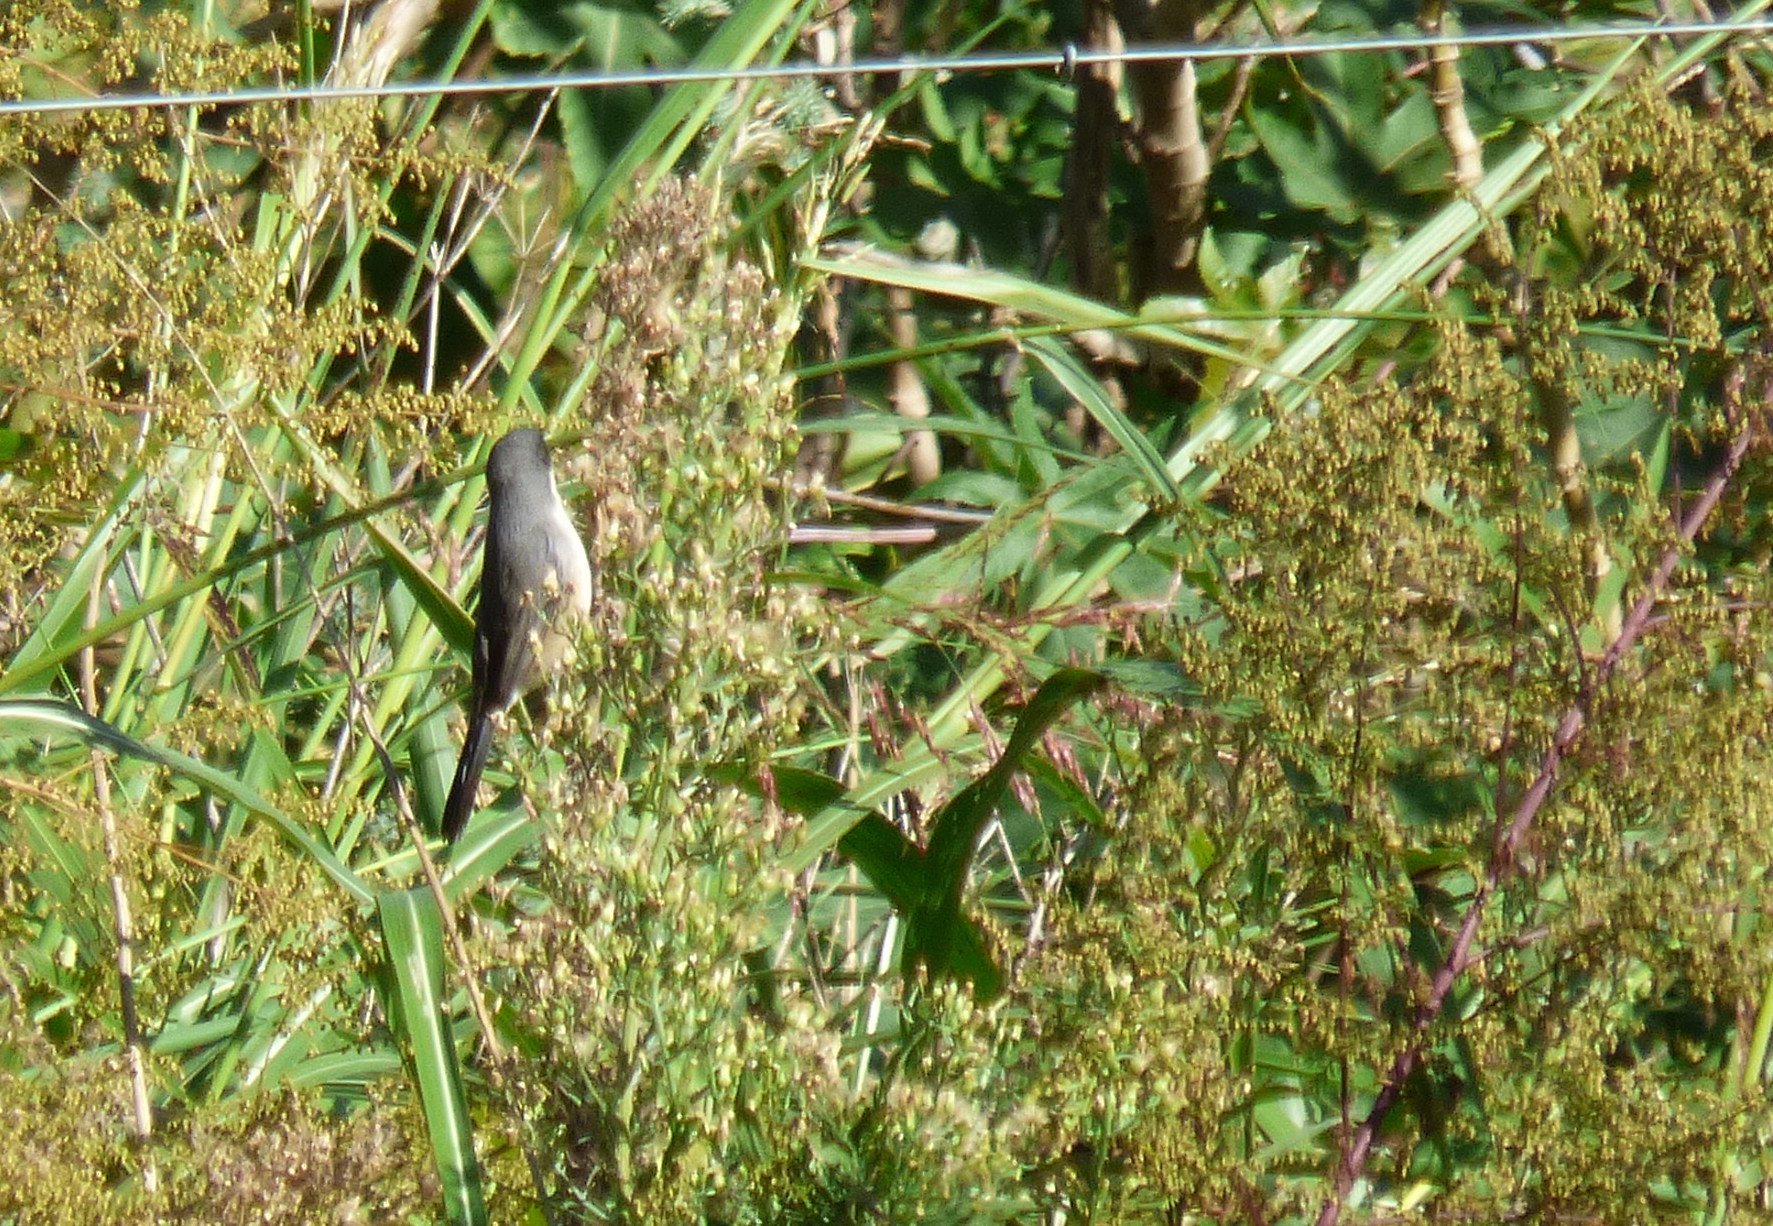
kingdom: Animalia
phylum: Chordata
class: Aves
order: Passeriformes
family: Thraupidae
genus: Microspingus
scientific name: Microspingus melanoleucus
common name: Black-capped warbling-finch
